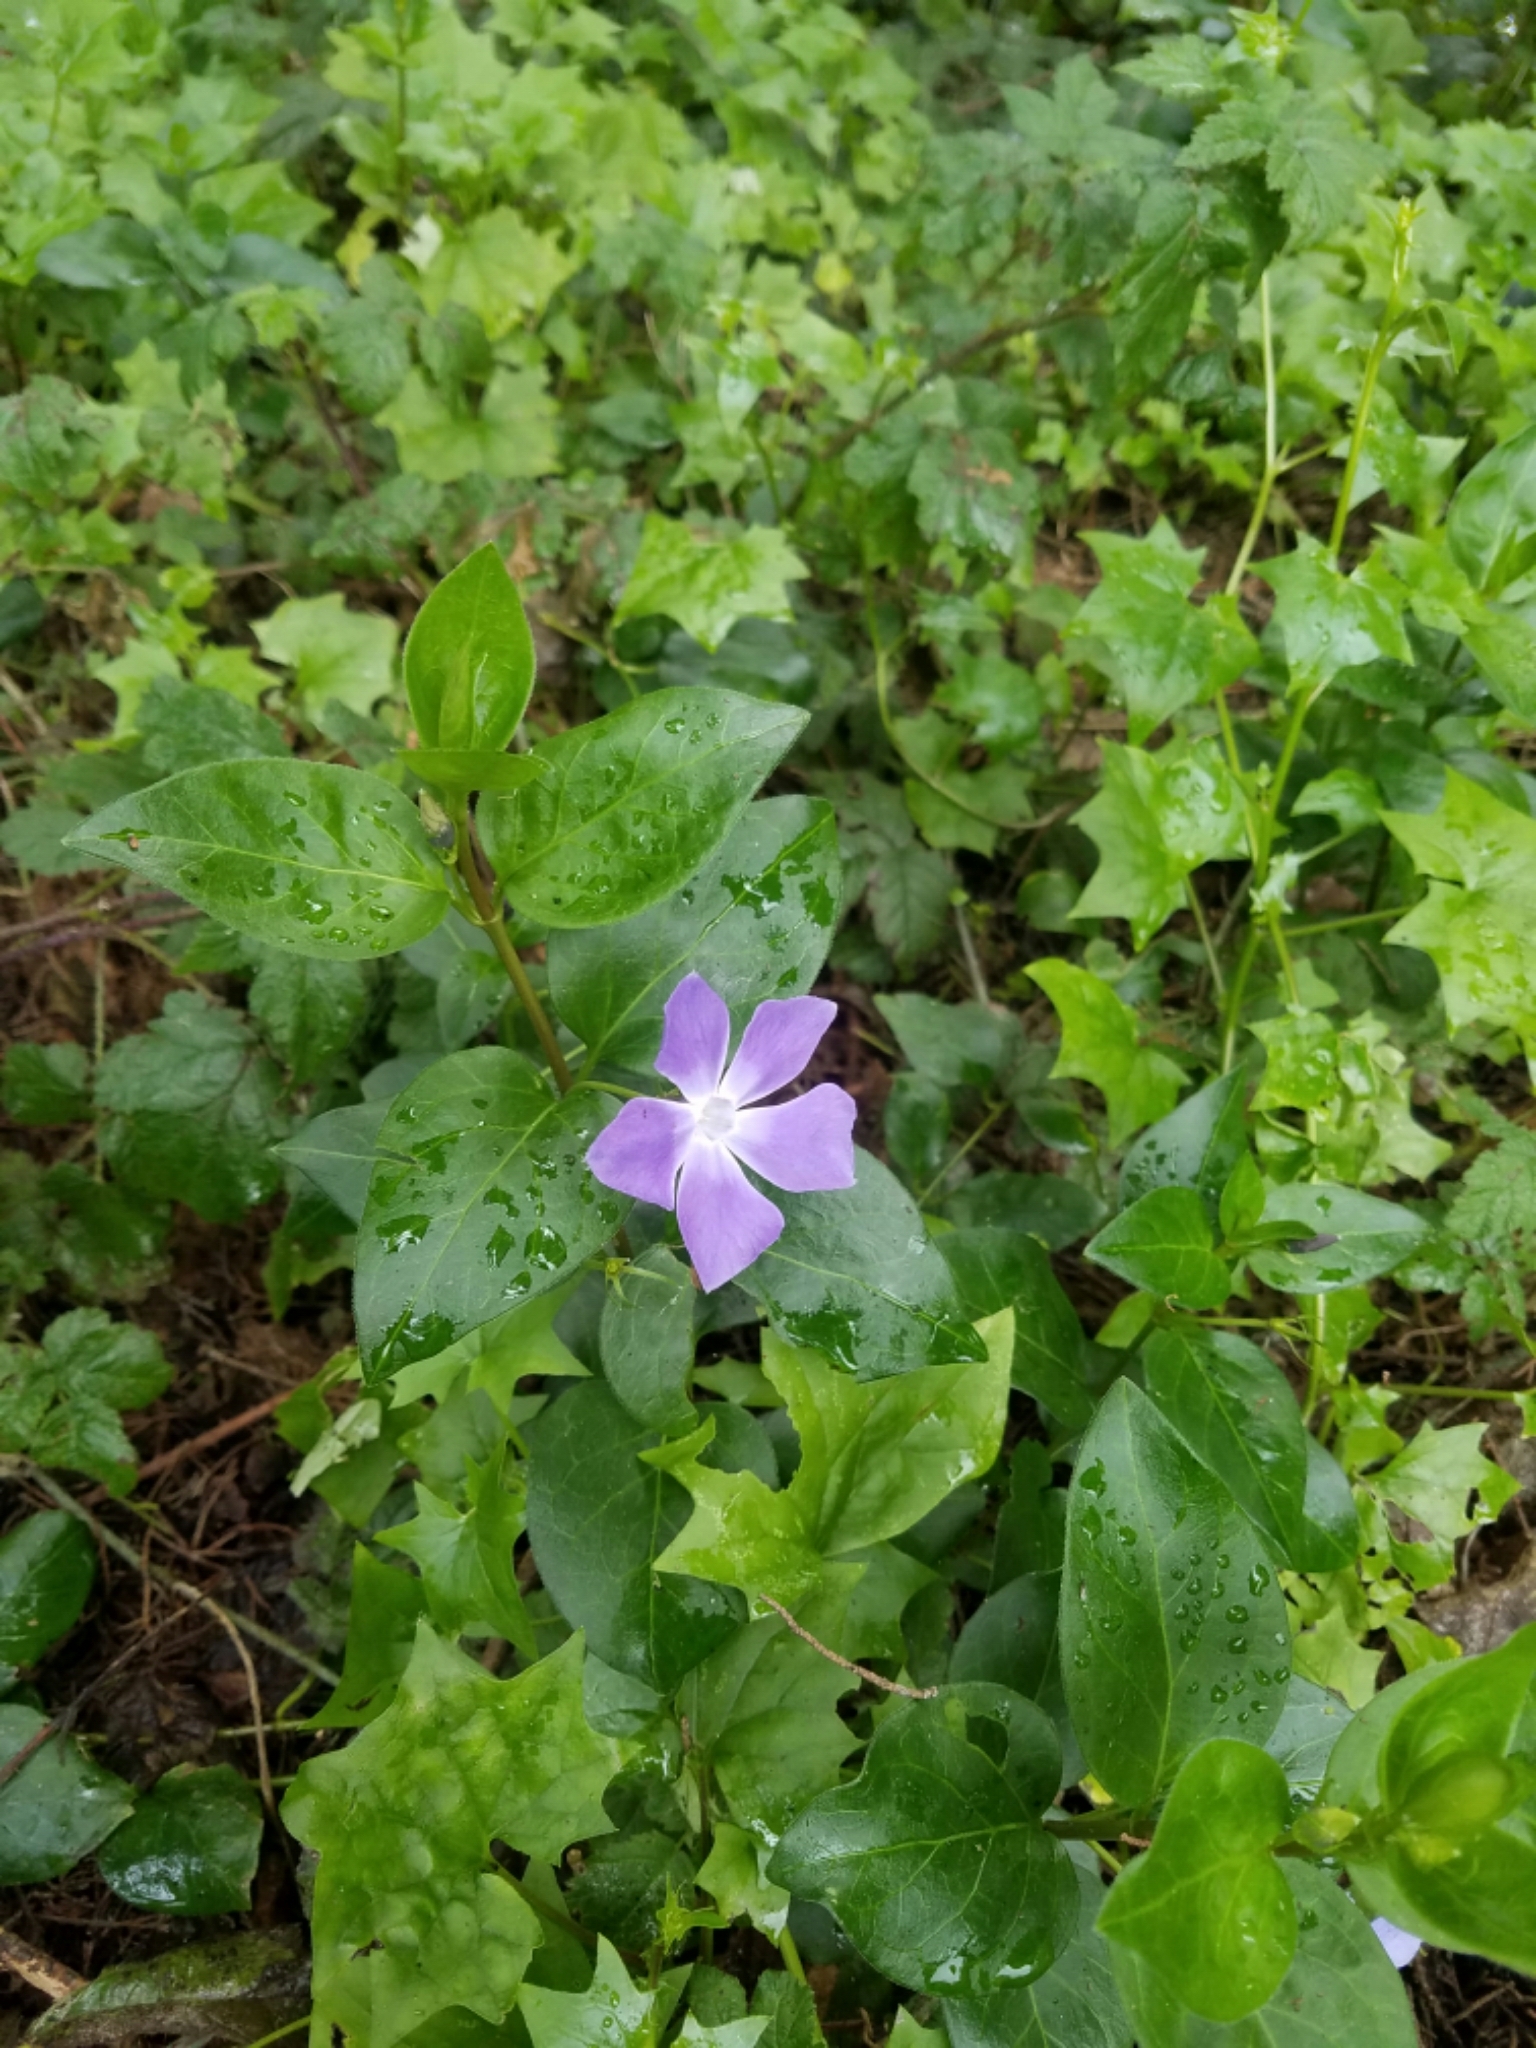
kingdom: Plantae
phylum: Tracheophyta
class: Magnoliopsida
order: Gentianales
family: Apocynaceae
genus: Vinca
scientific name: Vinca major
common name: Greater periwinkle
